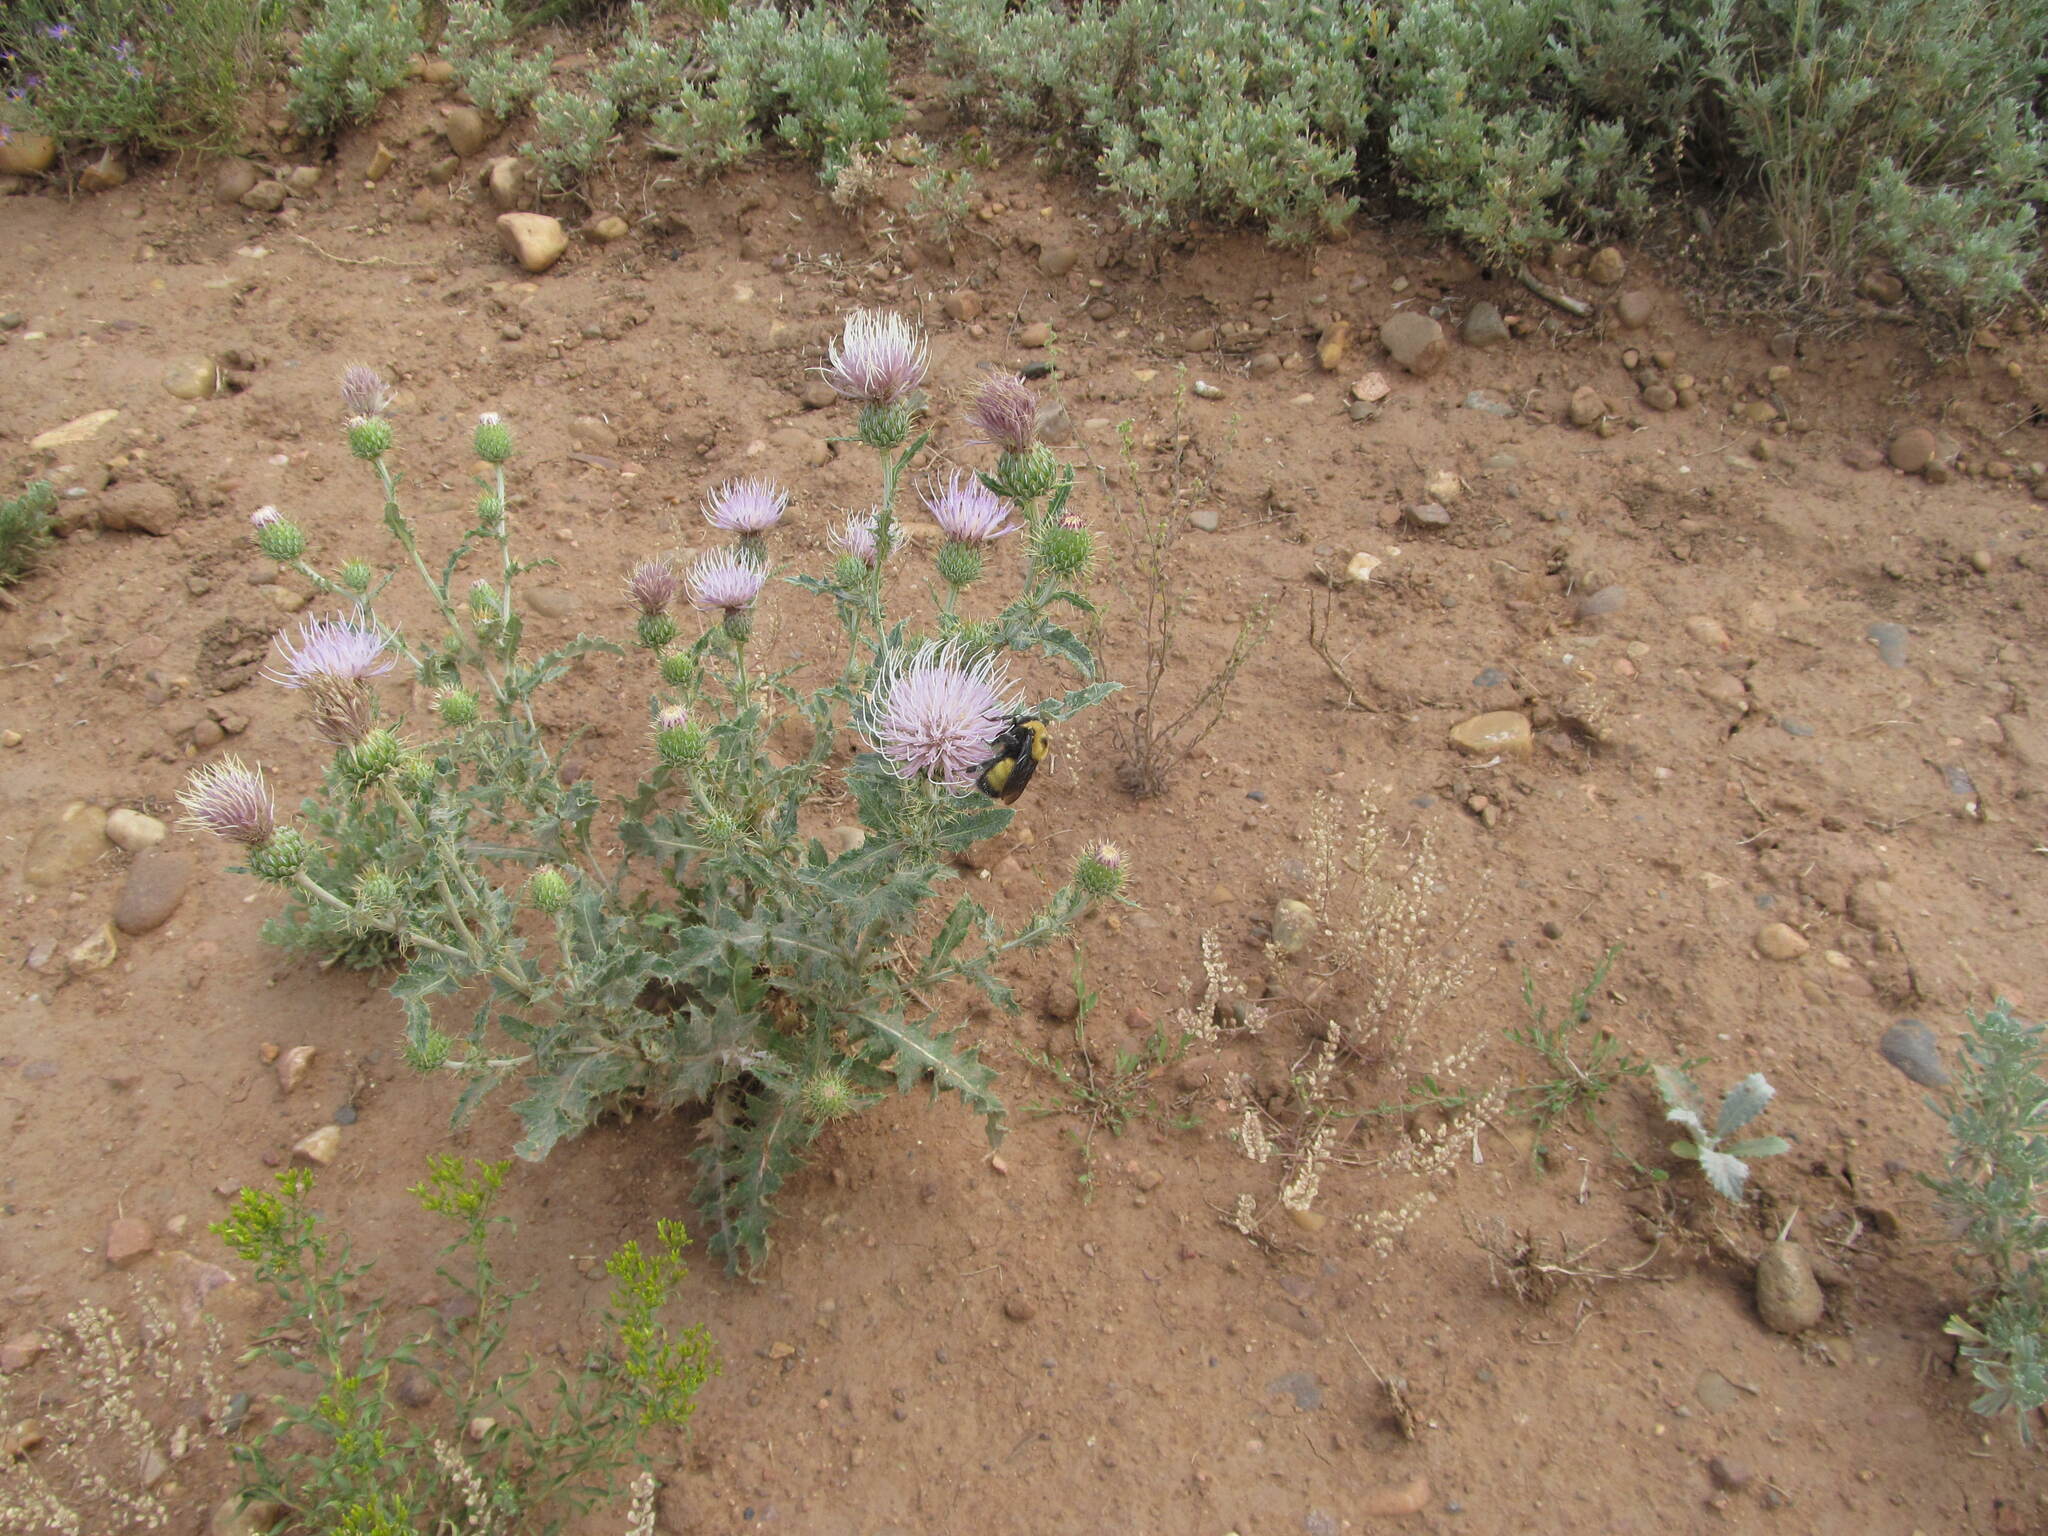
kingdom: Animalia
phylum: Arthropoda
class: Insecta
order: Hymenoptera
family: Apidae
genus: Bombus
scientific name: Bombus nevadensis
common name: Nevada bumble bee
